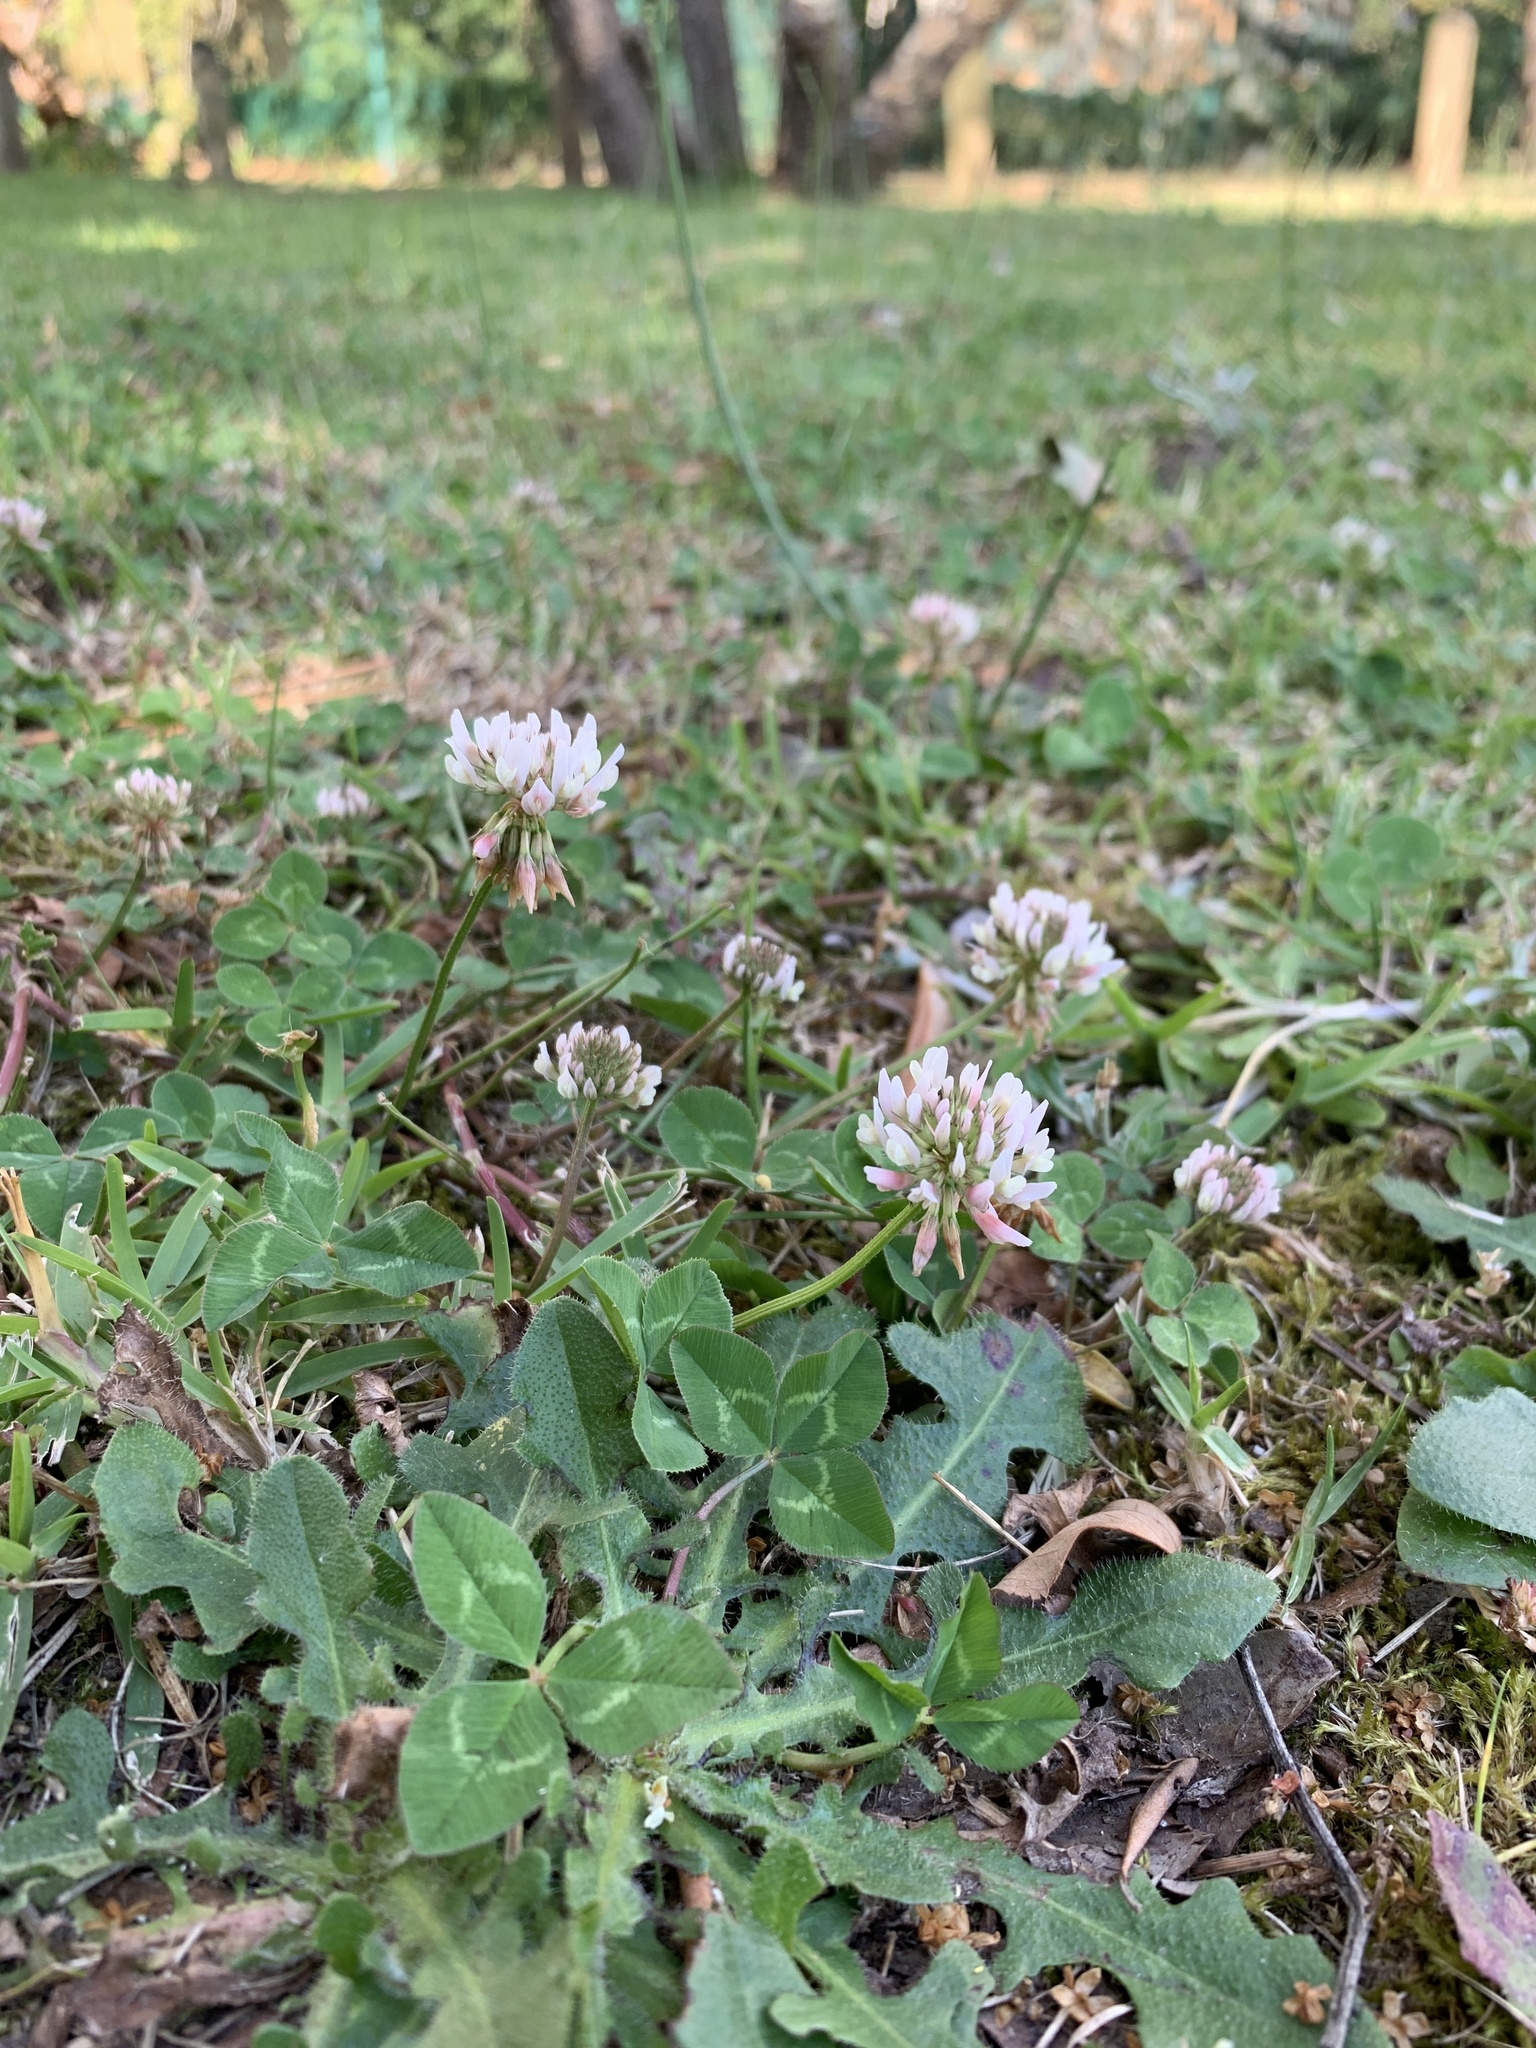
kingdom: Plantae
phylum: Tracheophyta
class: Magnoliopsida
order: Fabales
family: Fabaceae
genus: Trifolium
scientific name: Trifolium repens
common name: White clover
